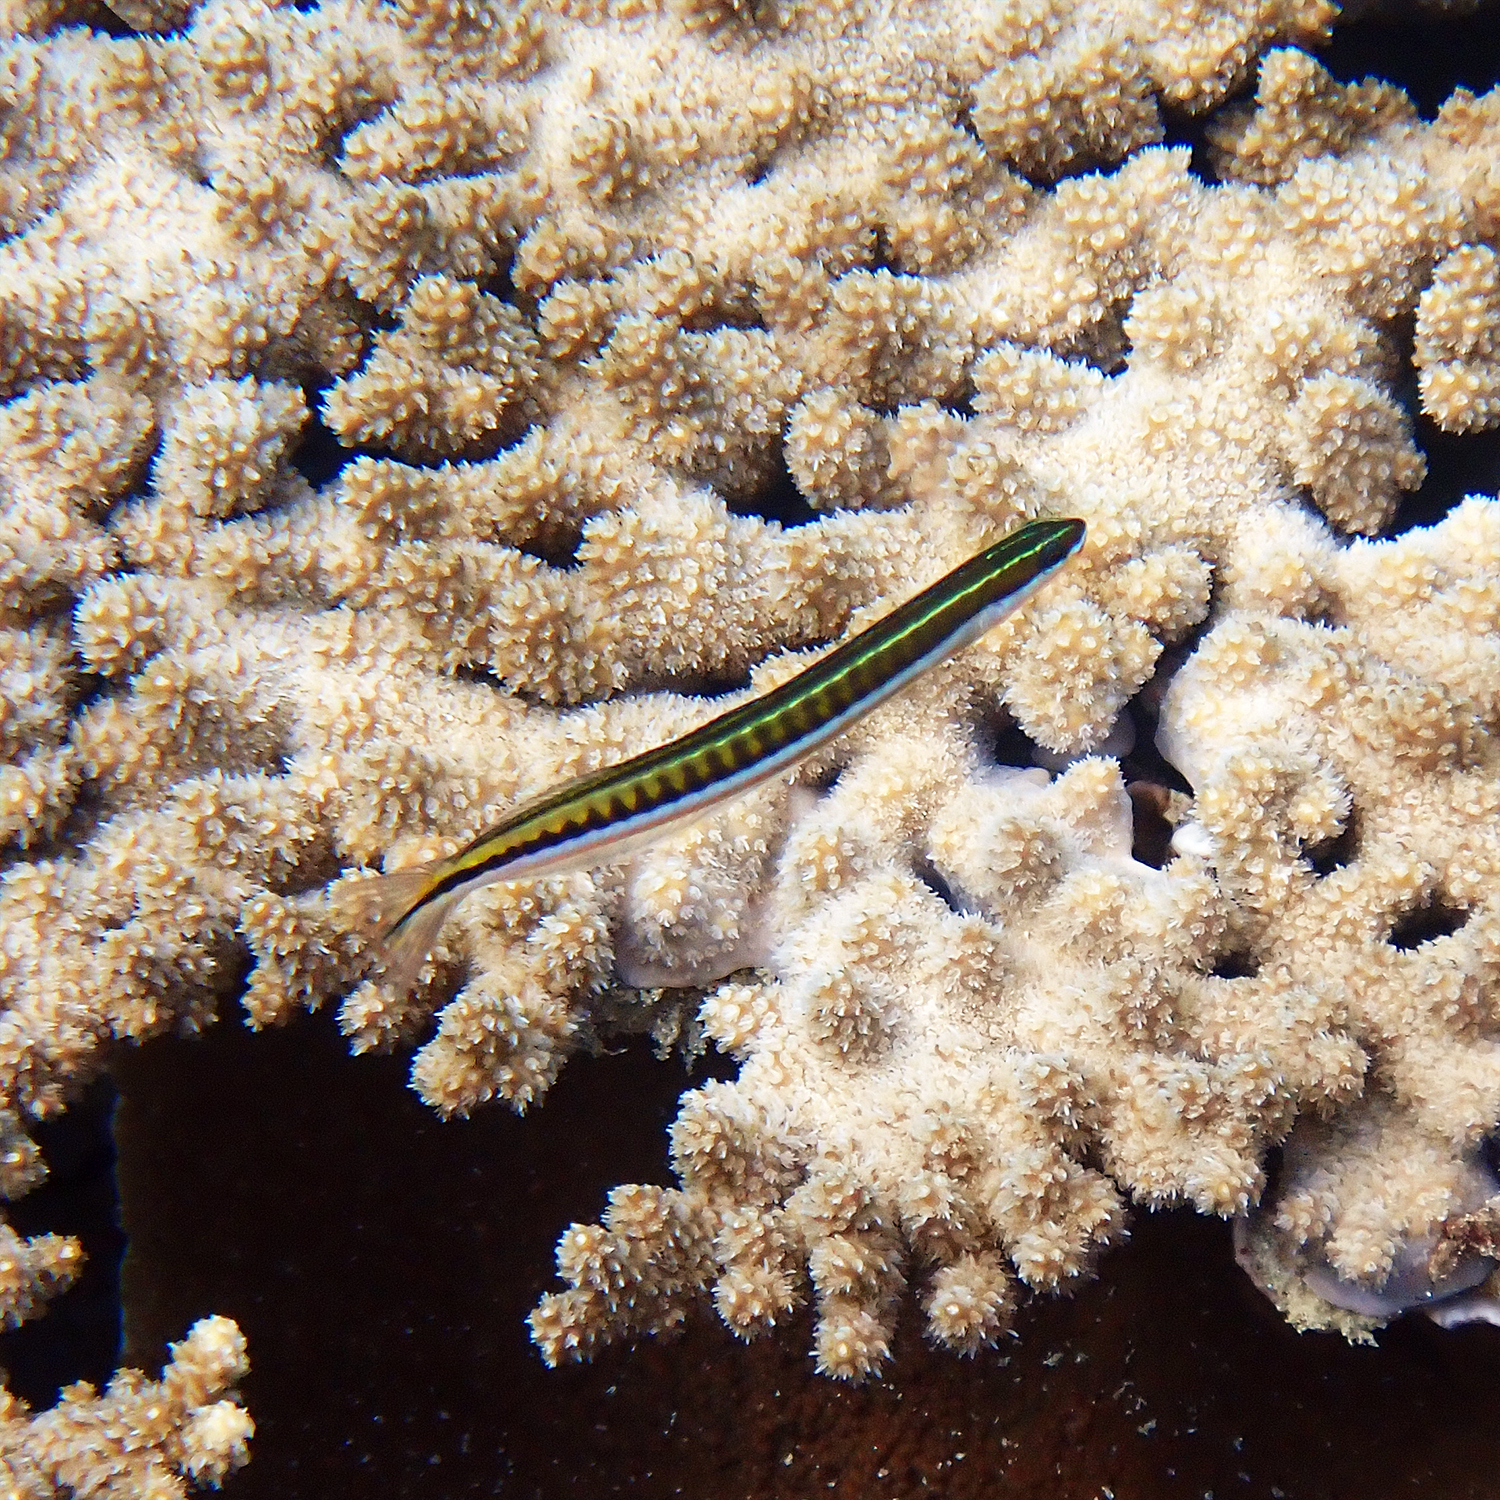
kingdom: Animalia
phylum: Chordata
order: Perciformes
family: Blenniidae
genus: Plagiotremus
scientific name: Plagiotremus tapeinosoma
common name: Hit and run blenny
